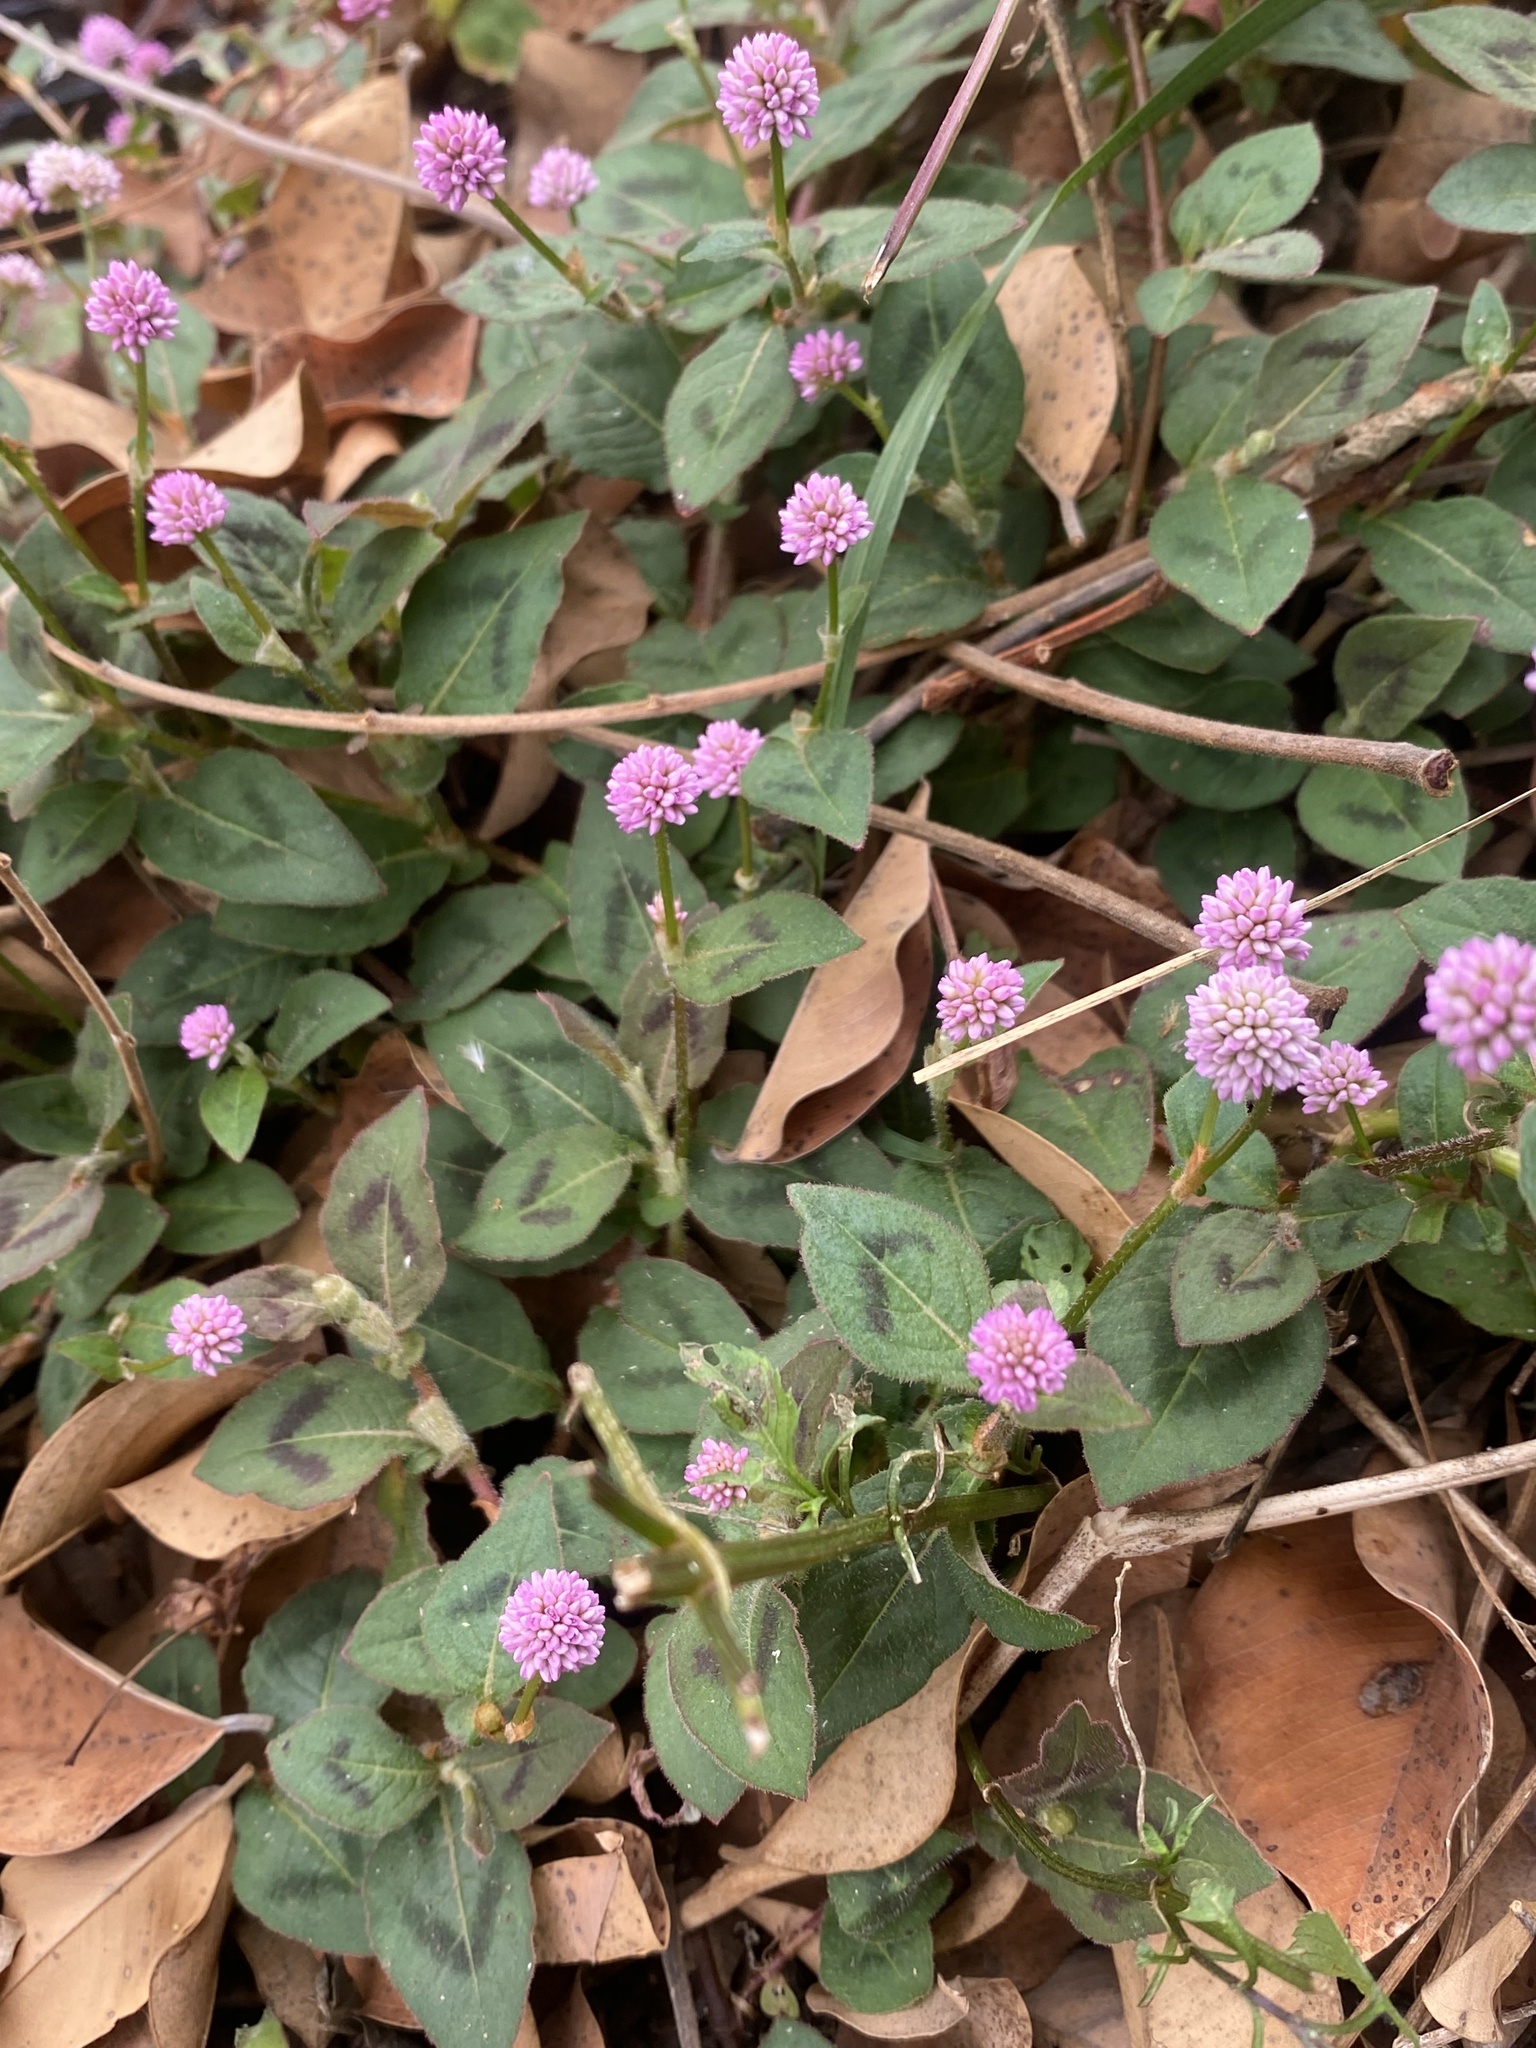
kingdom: Plantae
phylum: Tracheophyta
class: Magnoliopsida
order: Caryophyllales
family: Polygonaceae
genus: Persicaria
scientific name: Persicaria capitata
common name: Pinkhead smartweed
